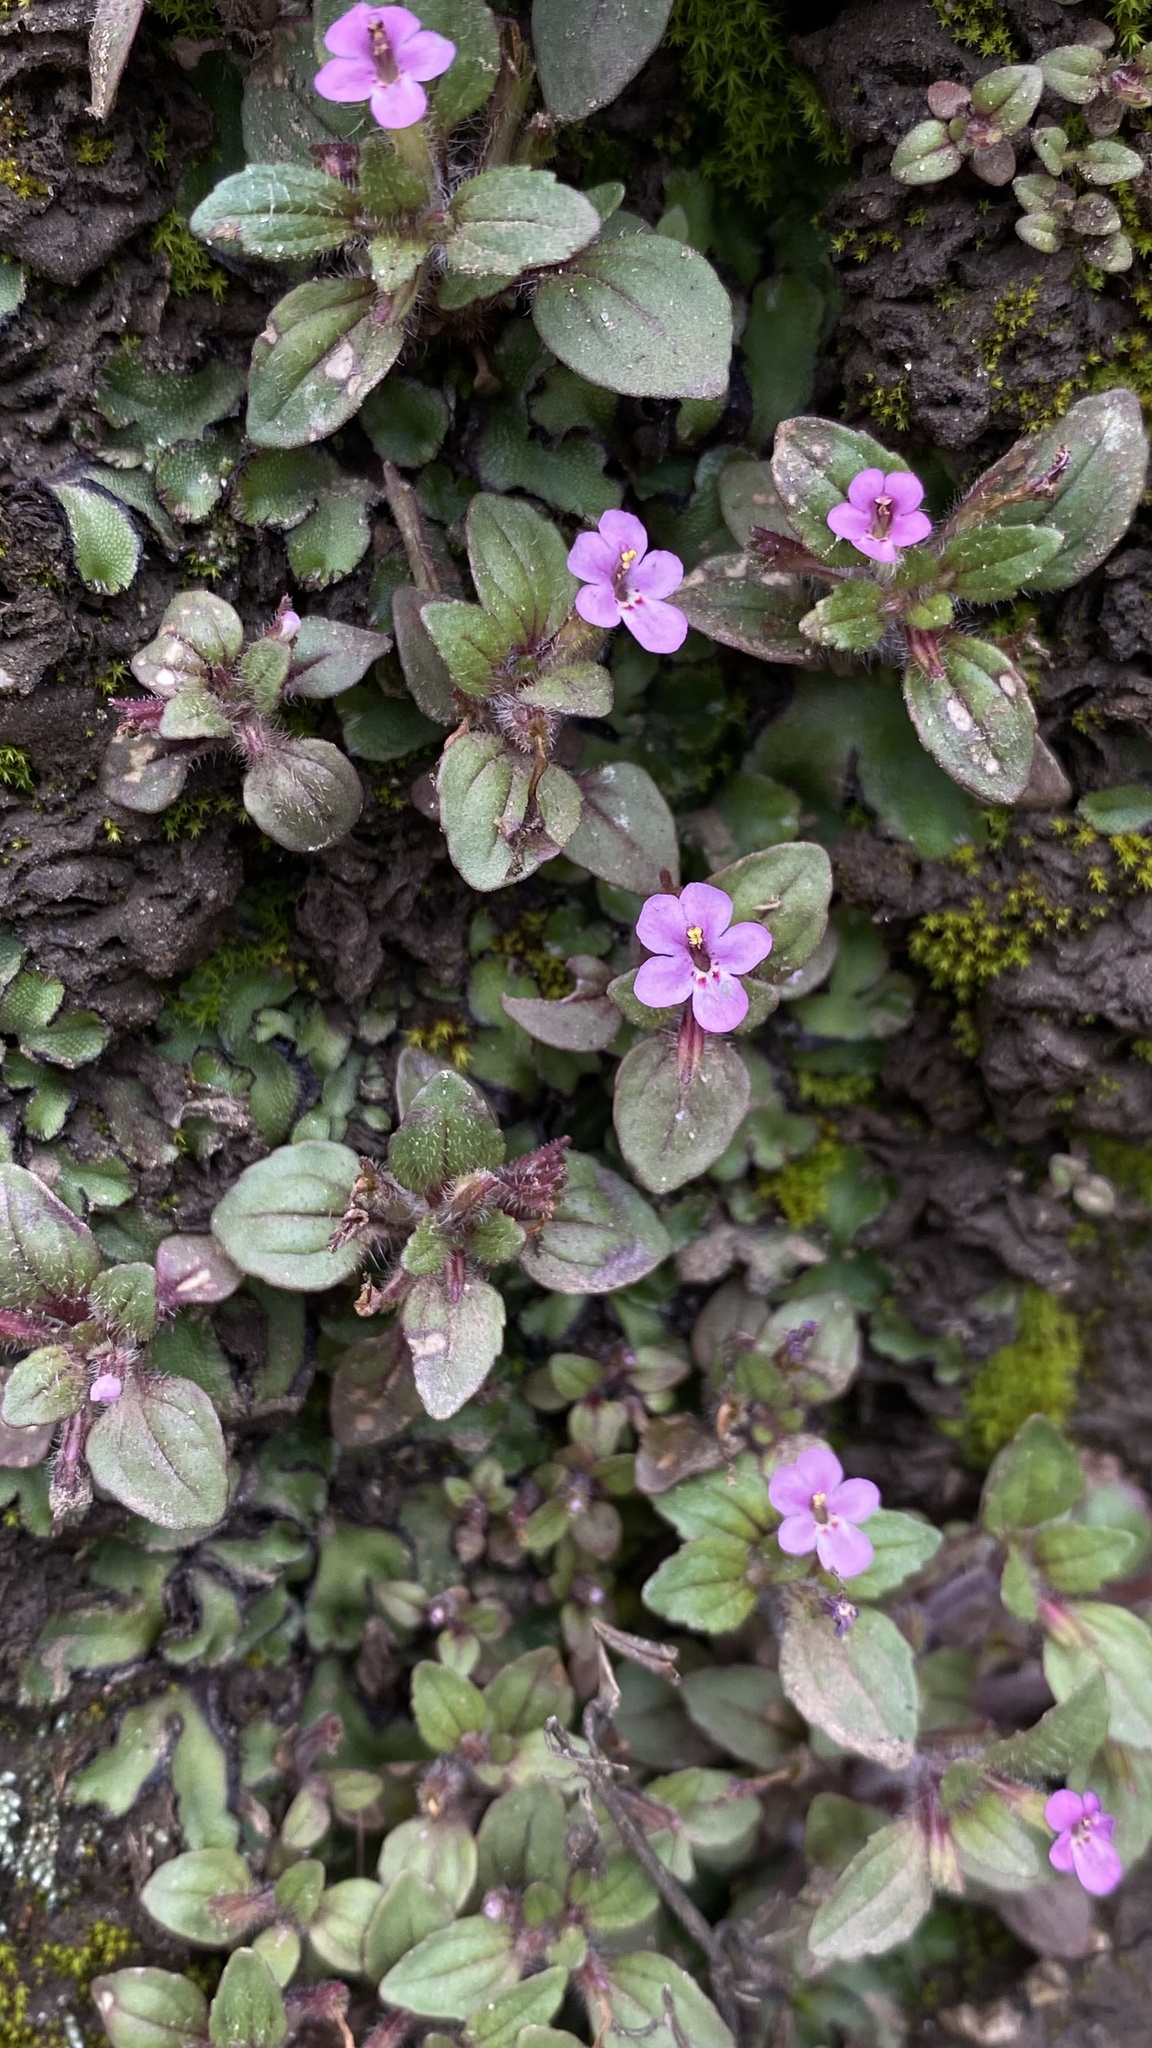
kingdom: Plantae
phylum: Tracheophyta
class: Magnoliopsida
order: Lamiales
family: Phrymaceae
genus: Diplacus
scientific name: Diplacus congdonii
